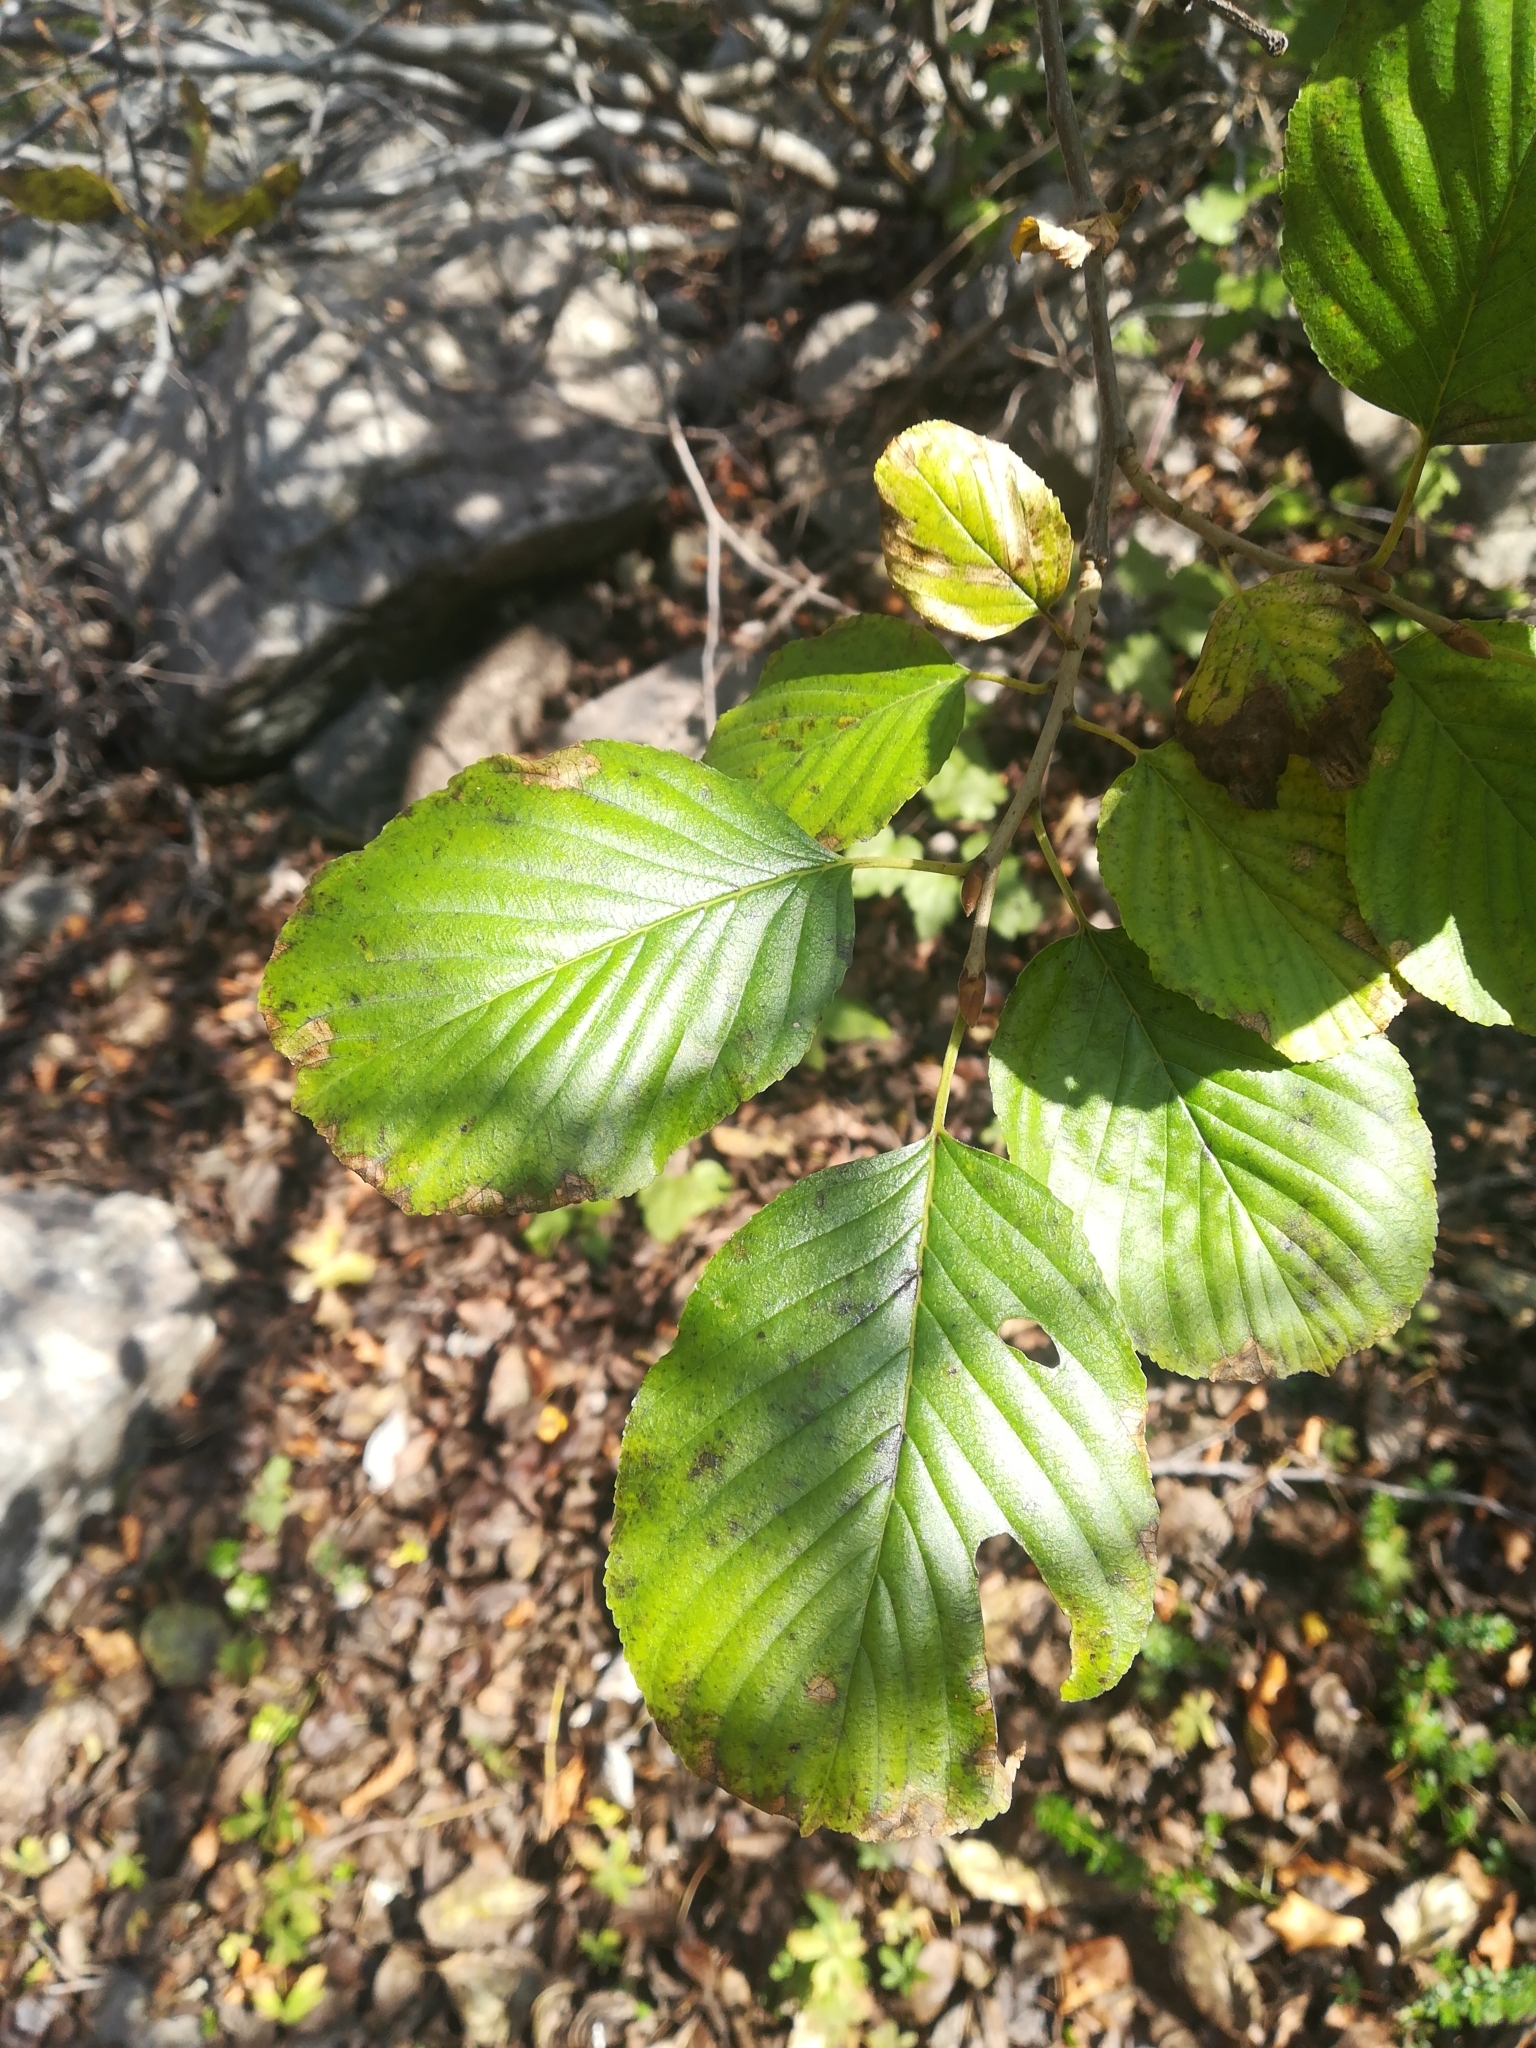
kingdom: Plantae
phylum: Tracheophyta
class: Magnoliopsida
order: Fagales
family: Betulaceae
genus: Alnus
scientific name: Alnus glutinosa
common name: Black alder
